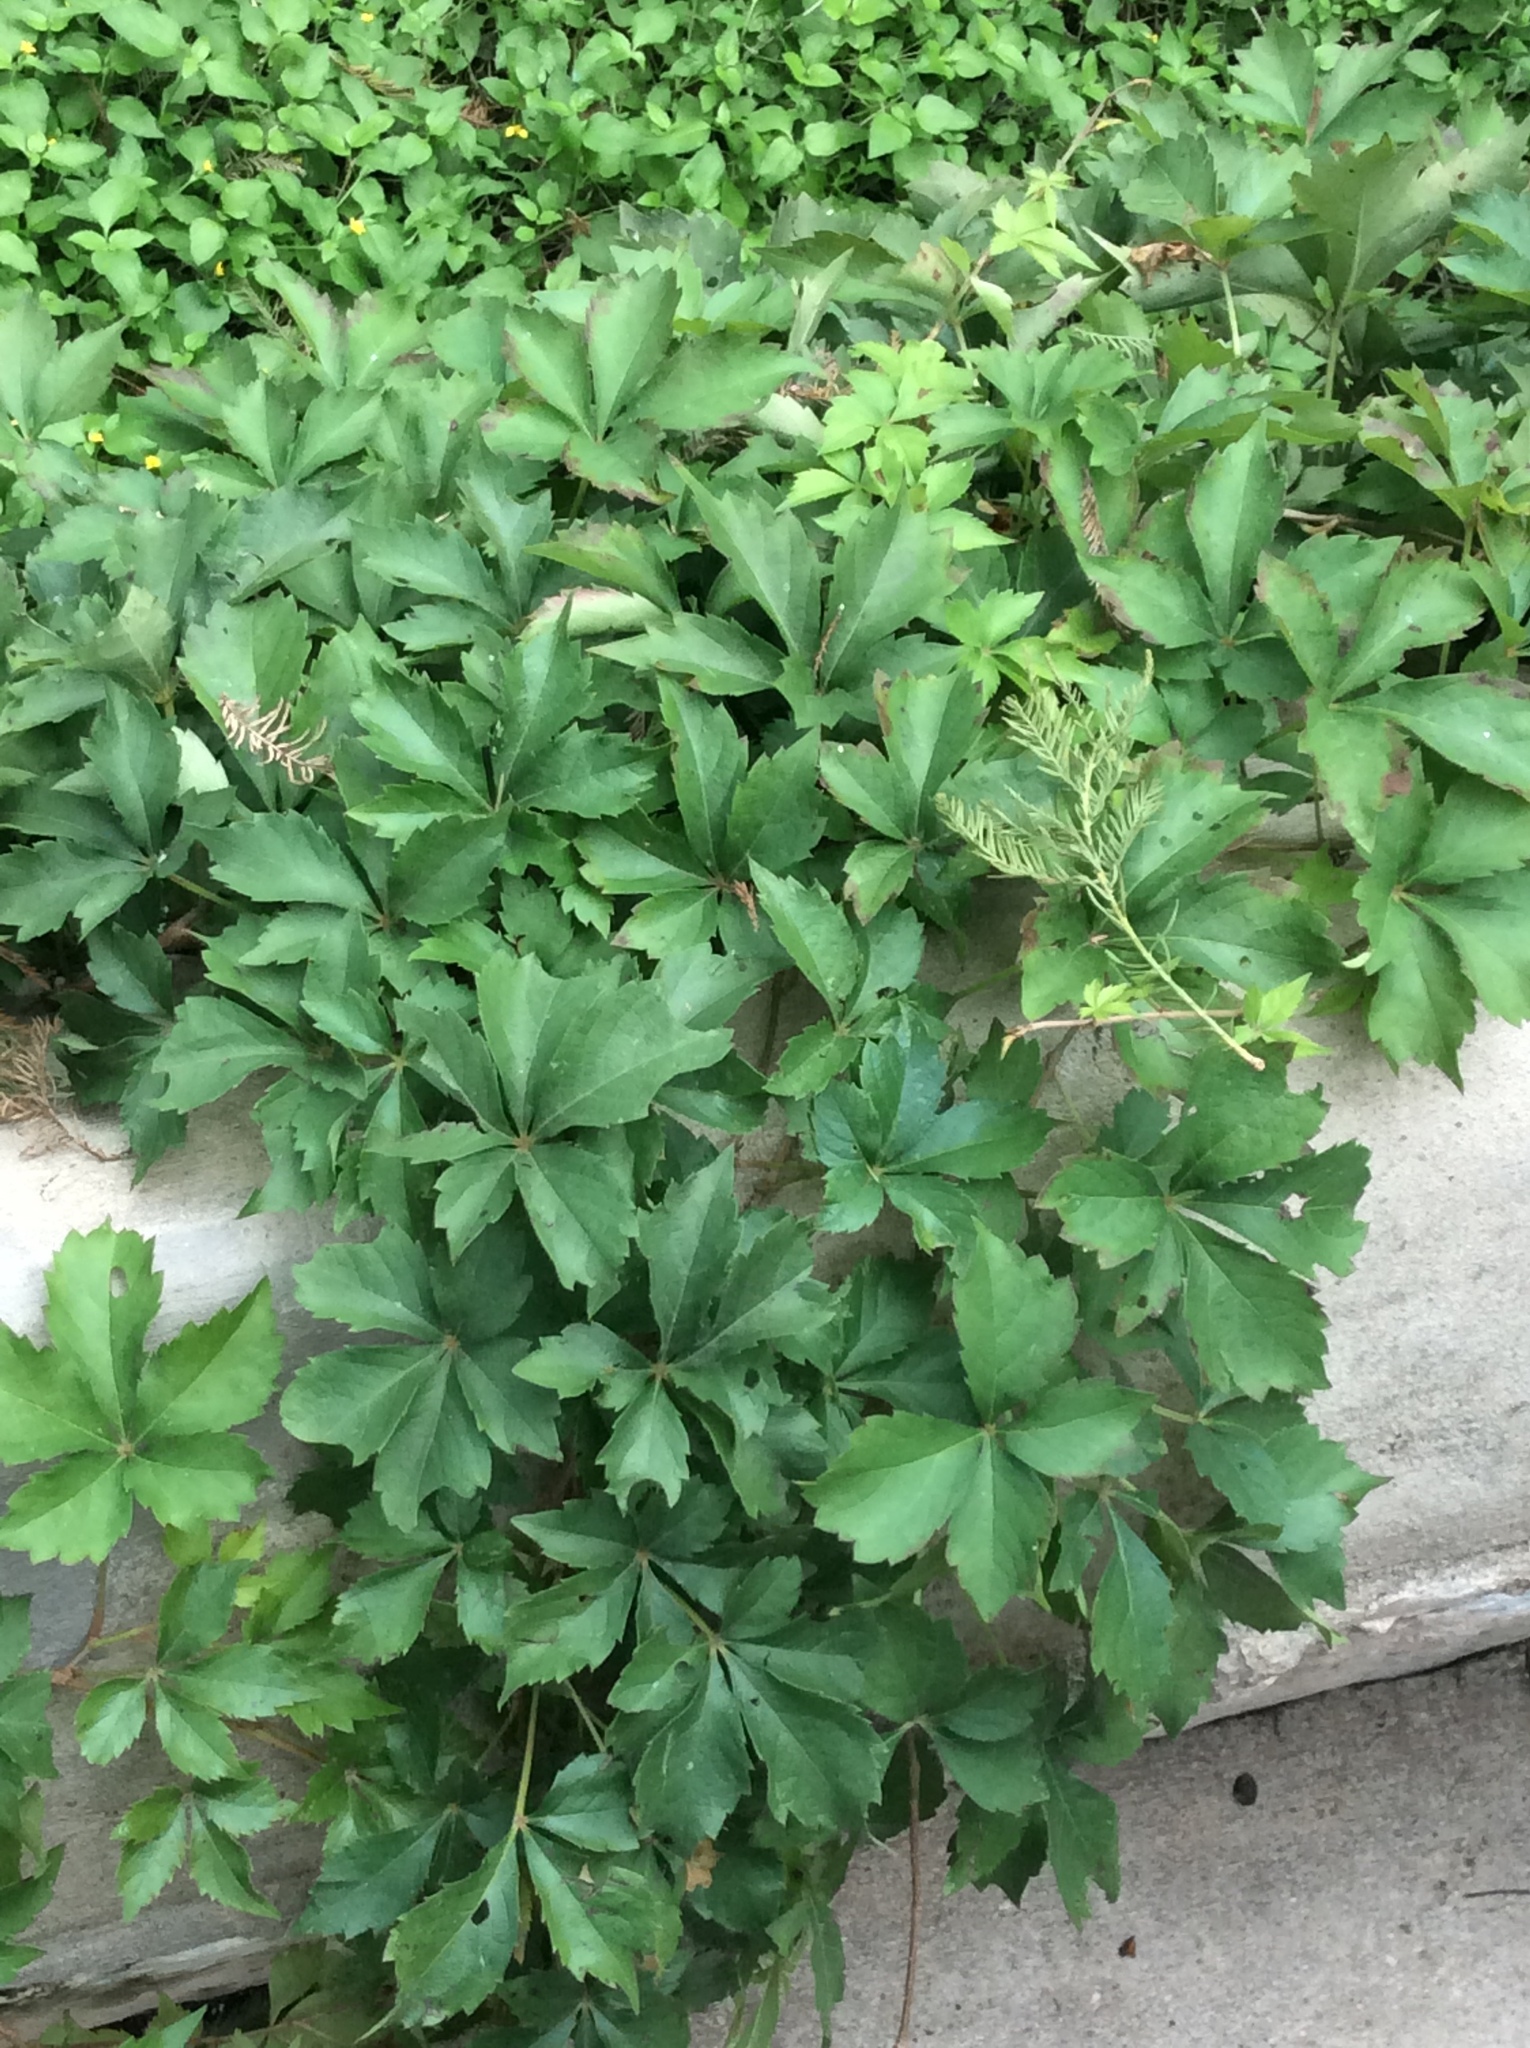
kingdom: Plantae
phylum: Tracheophyta
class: Magnoliopsida
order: Vitales
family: Vitaceae
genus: Parthenocissus
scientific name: Parthenocissus quinquefolia
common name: Virginia-creeper
